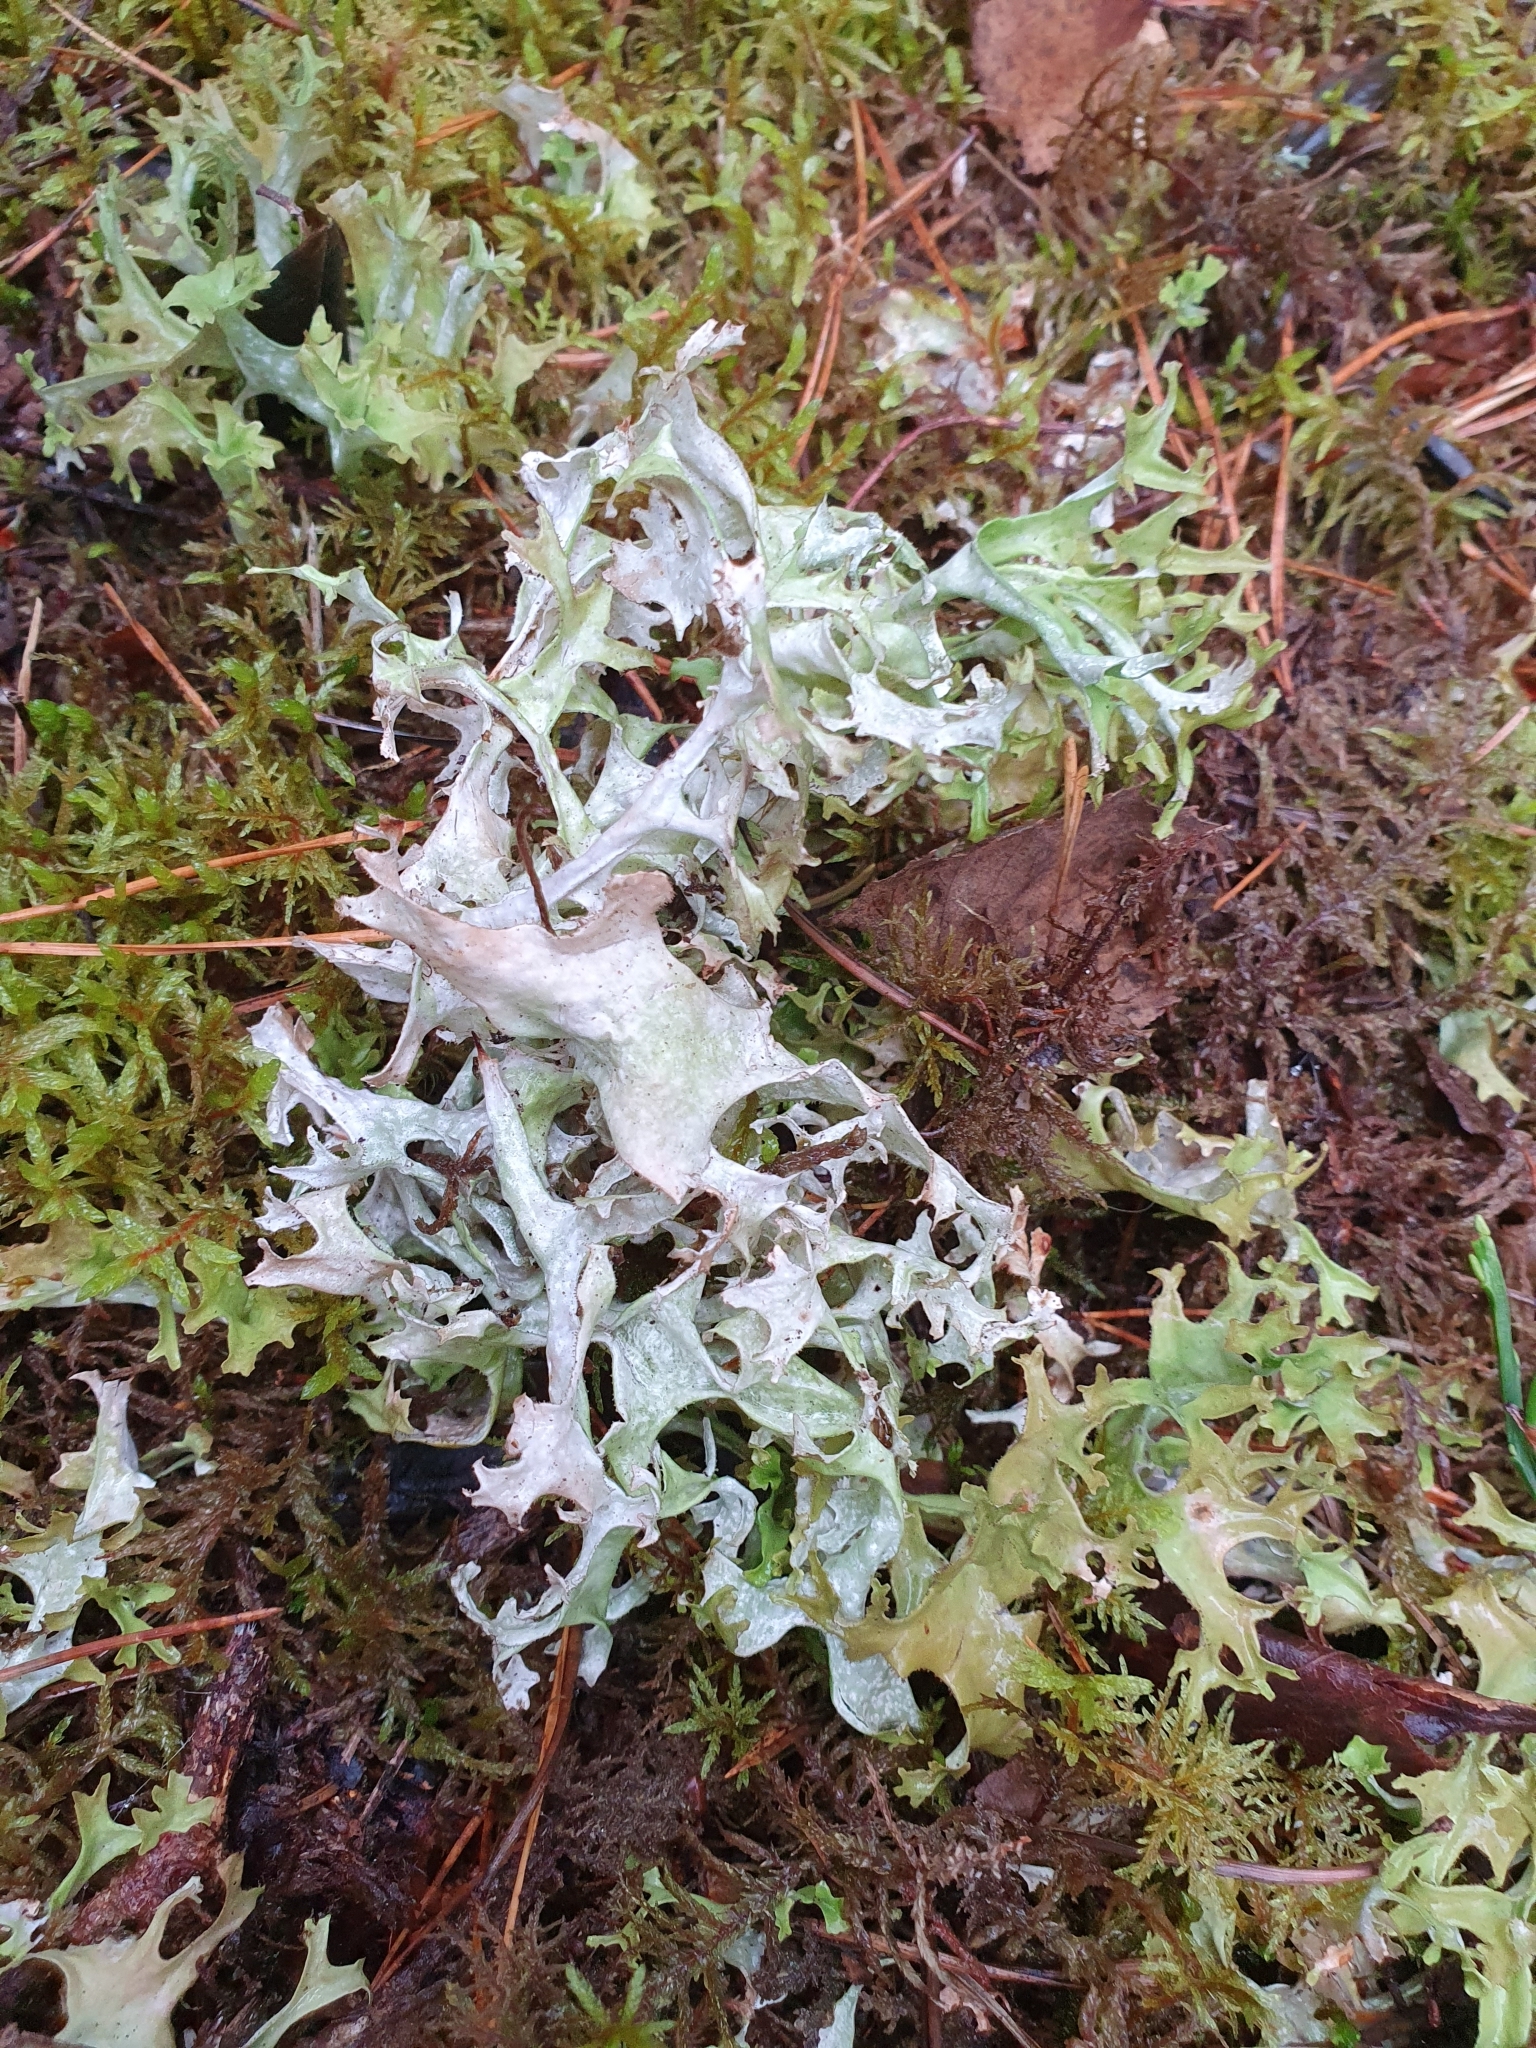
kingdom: Fungi
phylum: Ascomycota
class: Lecanoromycetes
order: Lecanorales
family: Parmeliaceae
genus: Cetraria
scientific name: Cetraria islandica
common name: Iceland lichen
